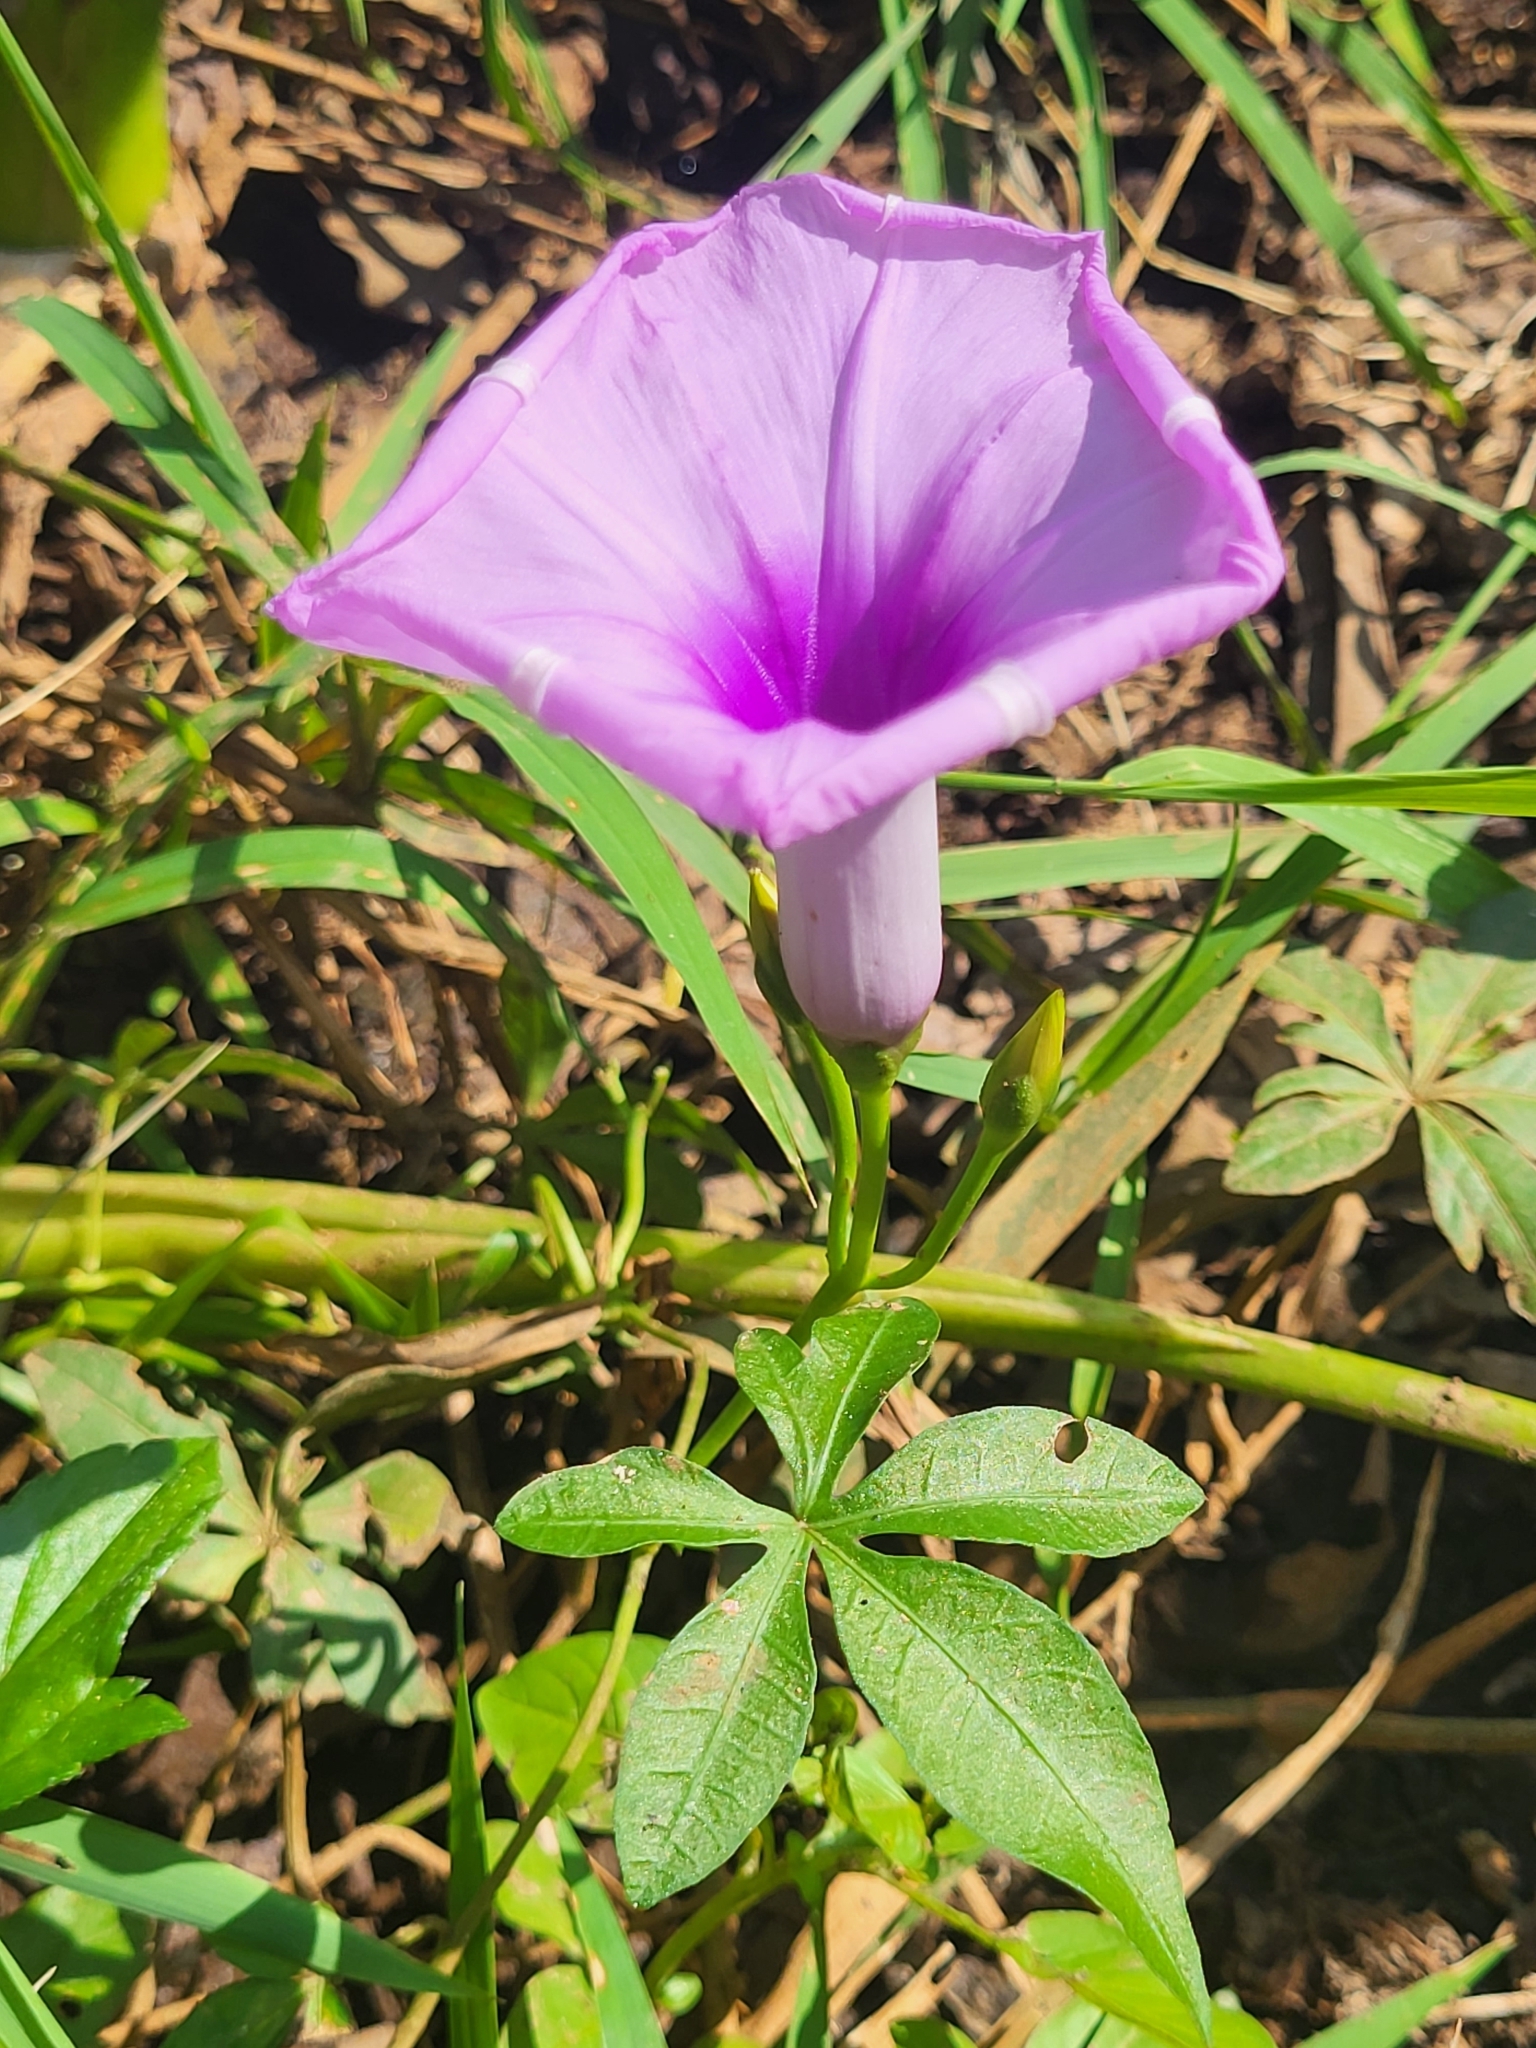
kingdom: Plantae
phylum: Tracheophyta
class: Magnoliopsida
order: Solanales
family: Convolvulaceae
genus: Ipomoea
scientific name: Ipomoea cairica
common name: Mile a minute vine
